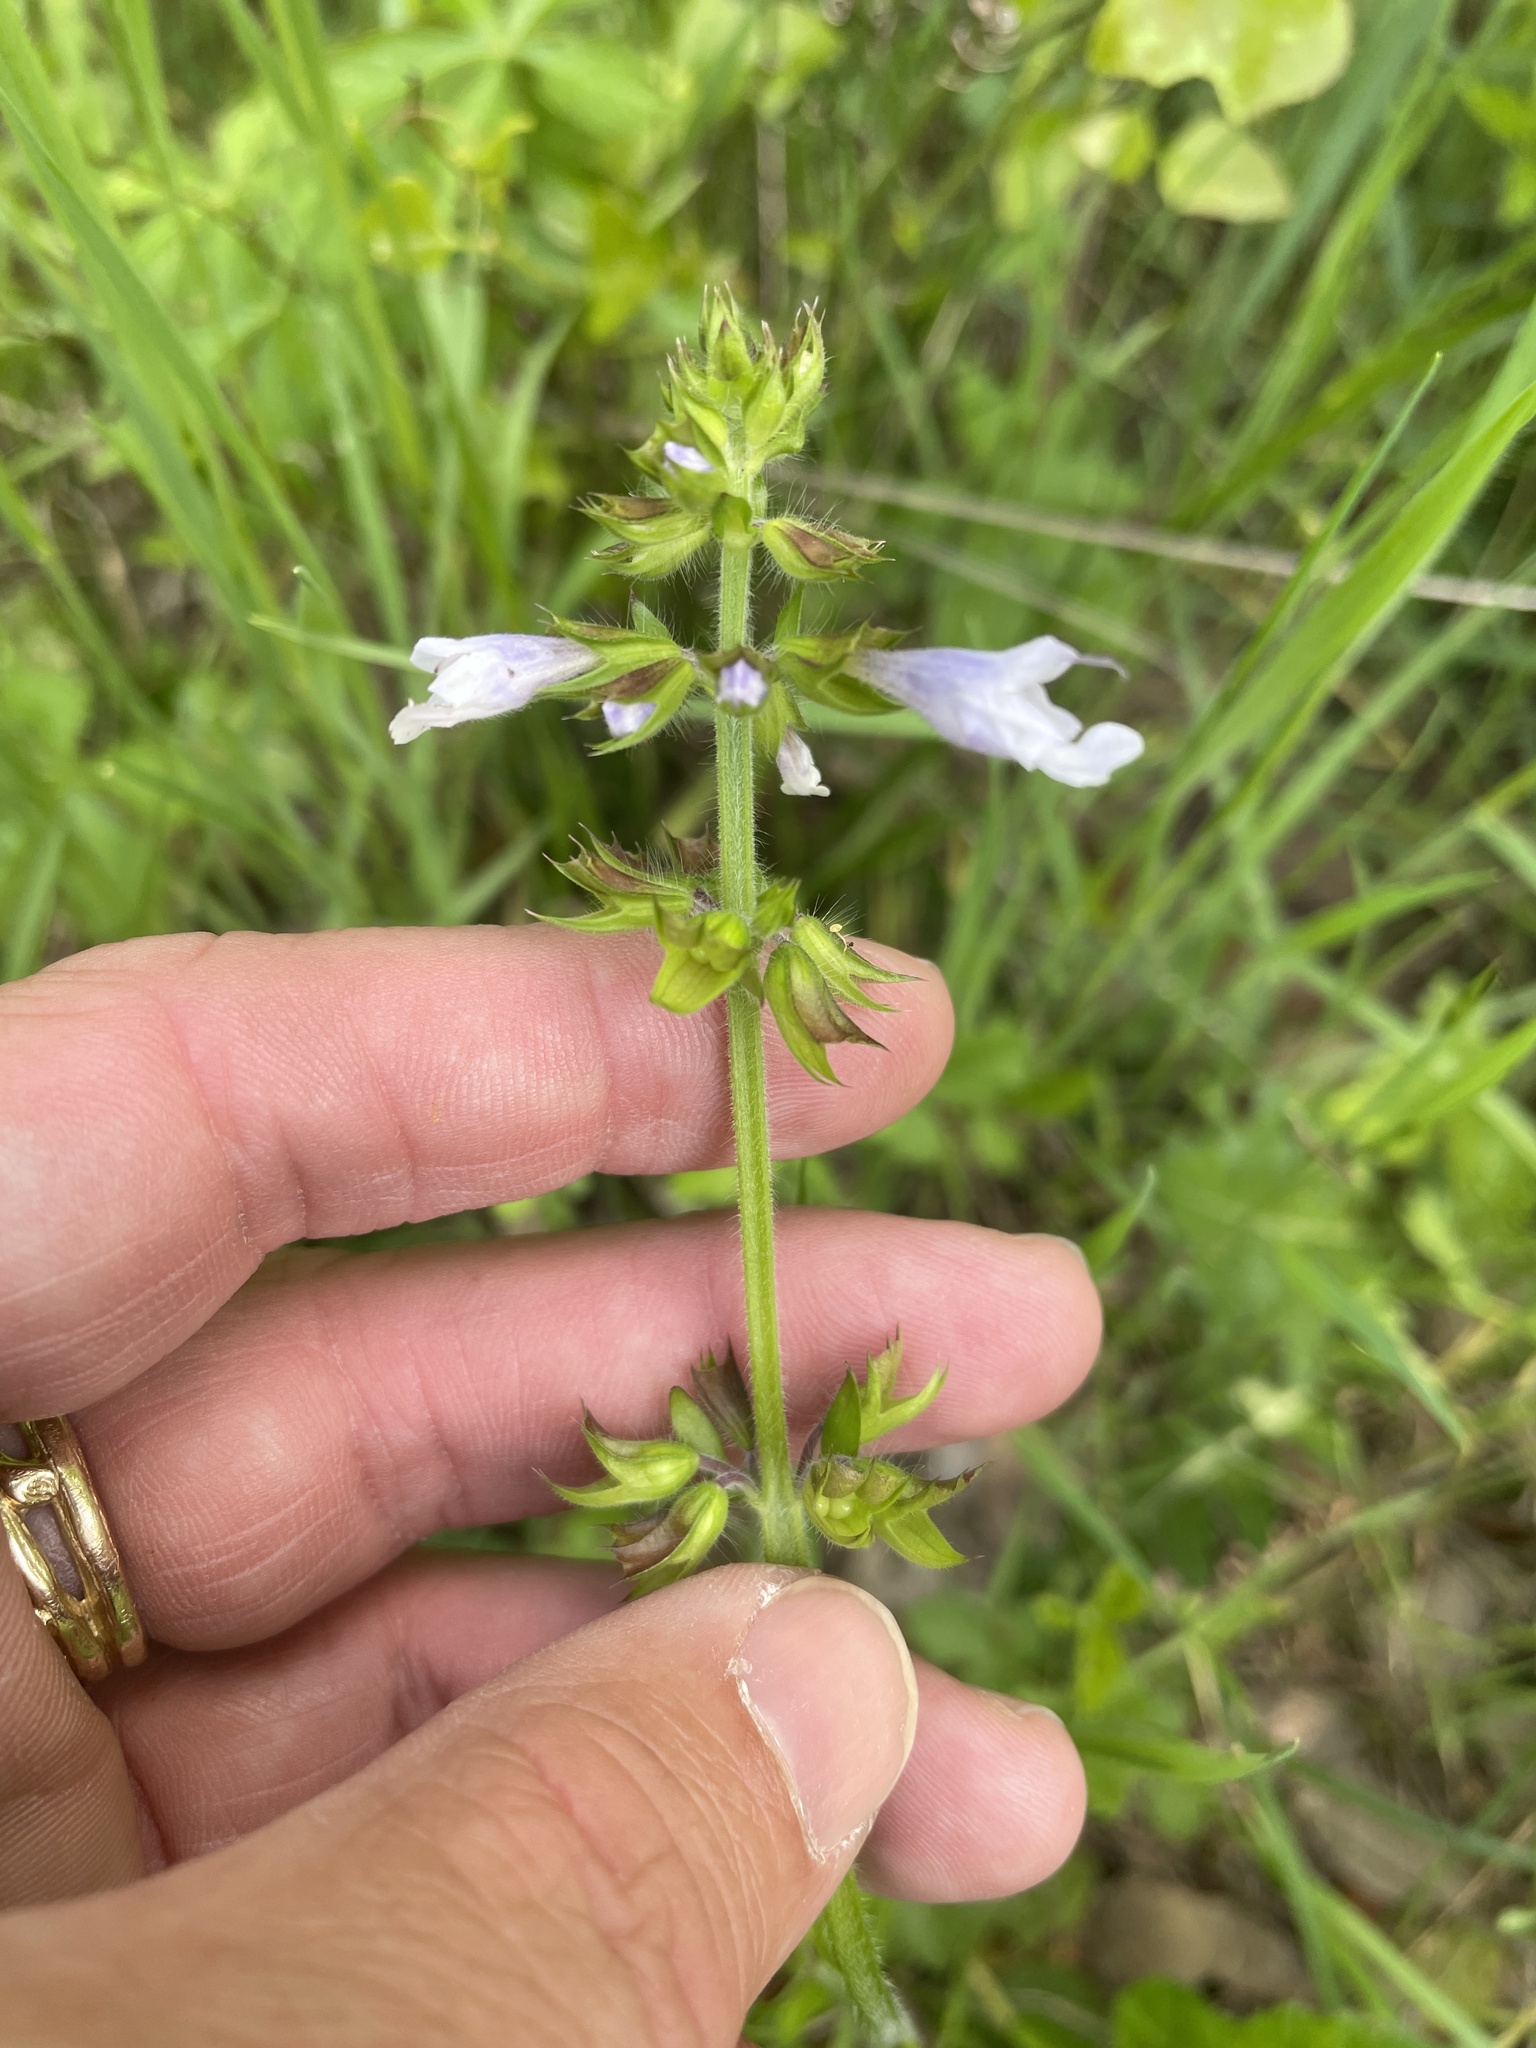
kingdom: Plantae
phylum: Tracheophyta
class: Magnoliopsida
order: Lamiales
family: Lamiaceae
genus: Salvia
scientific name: Salvia lyrata
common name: Cancerweed
